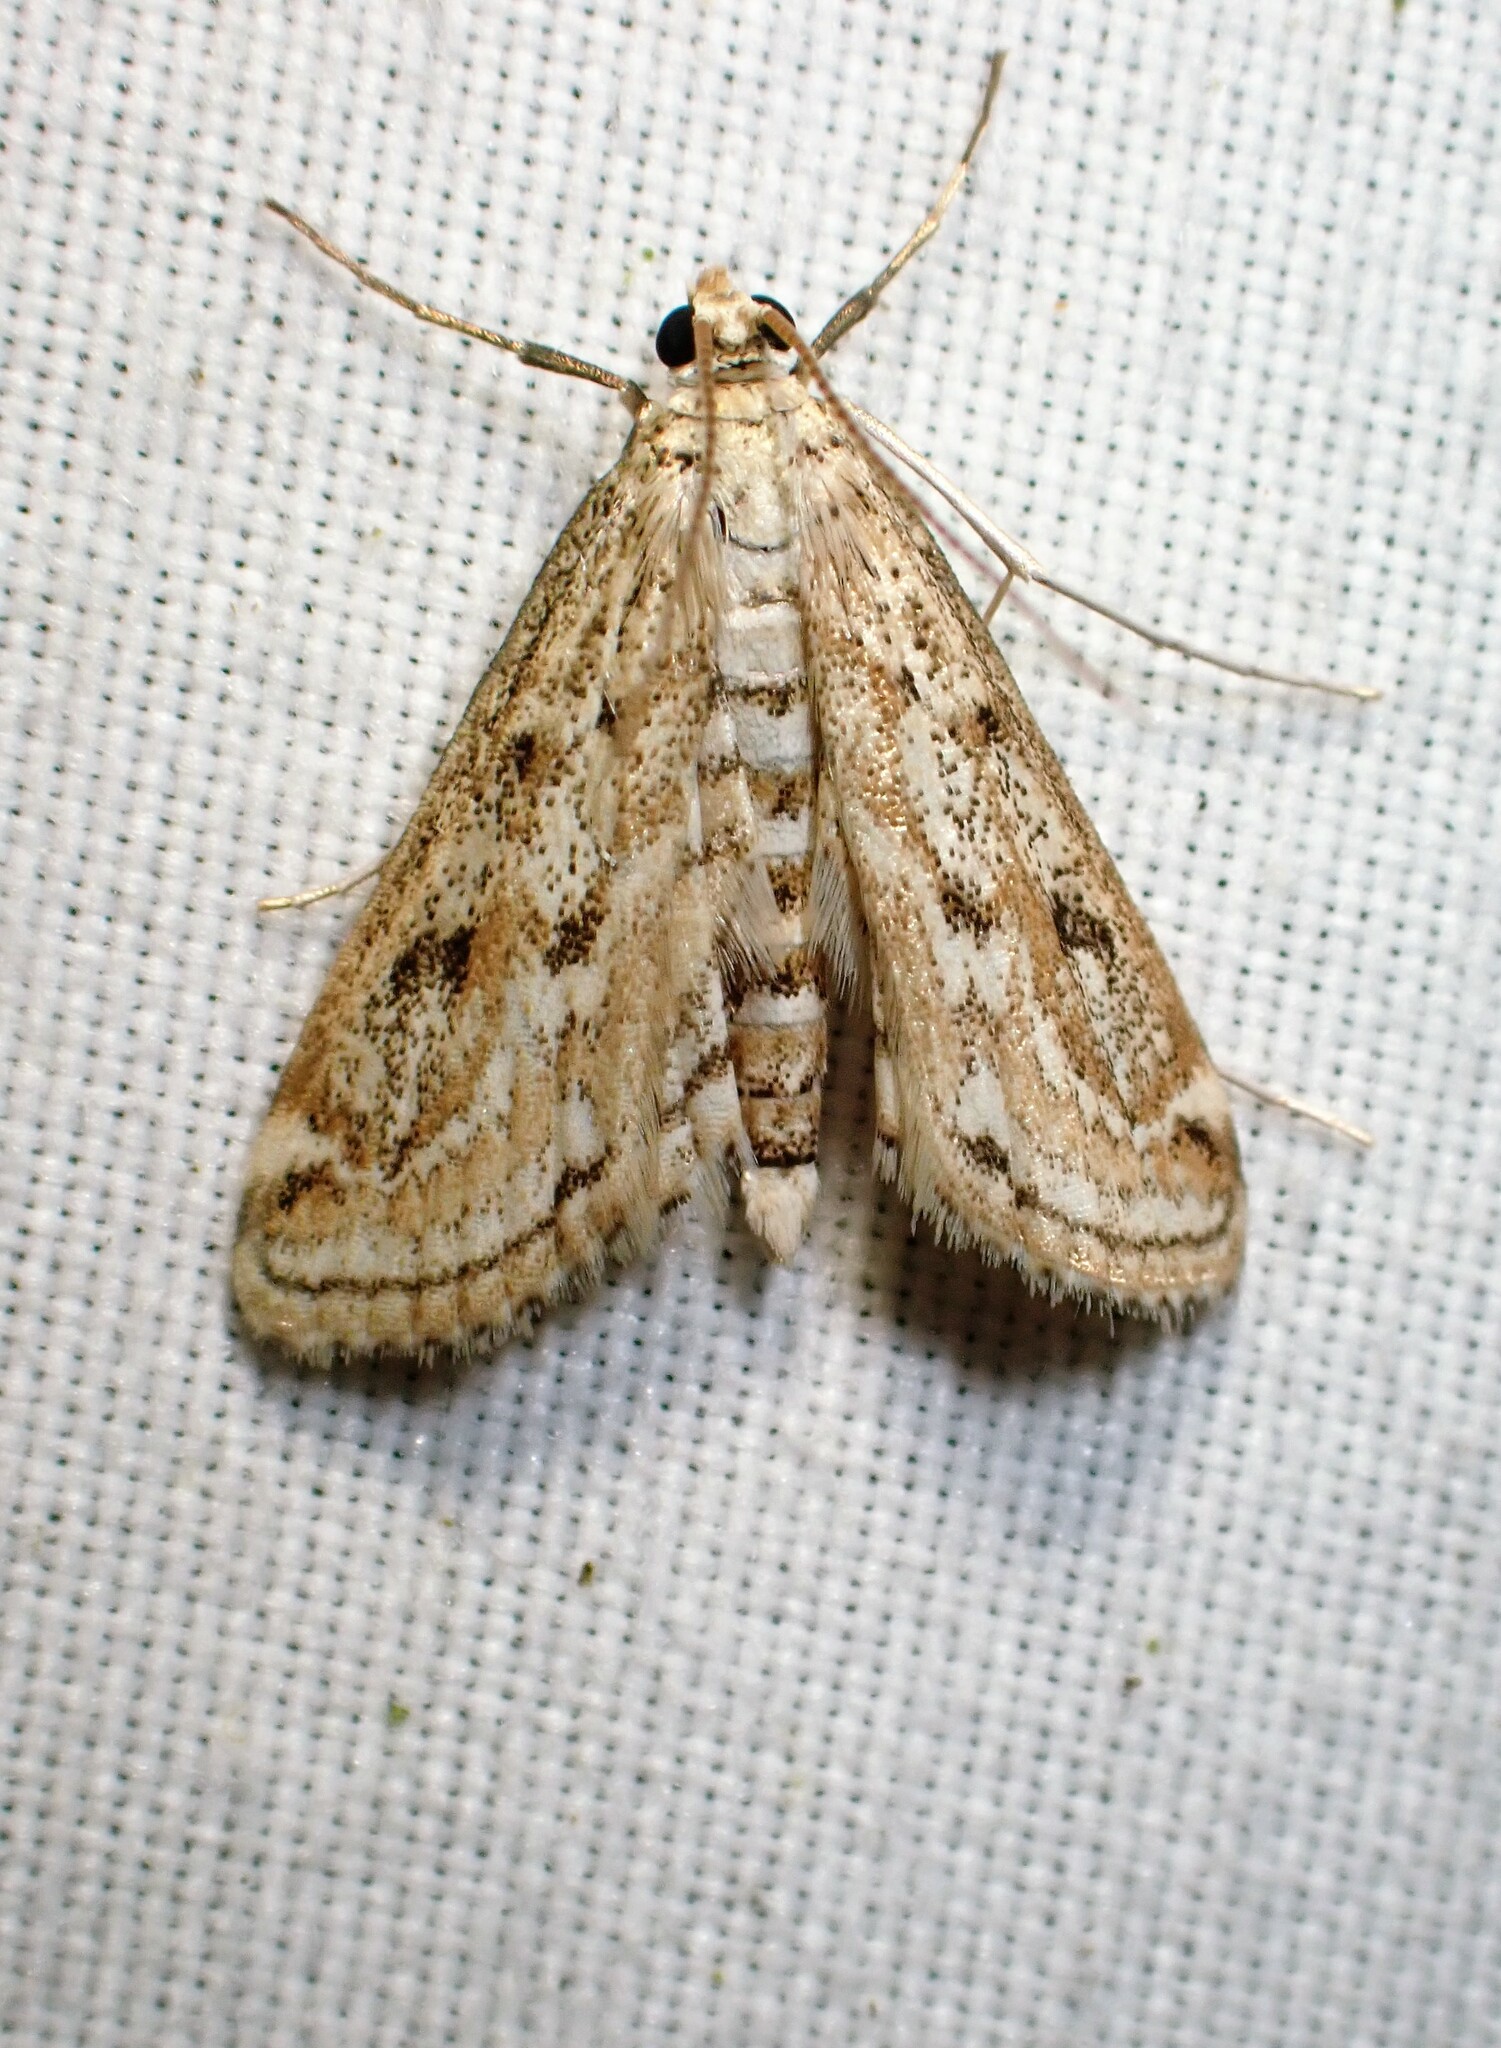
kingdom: Animalia
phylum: Arthropoda
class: Insecta
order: Lepidoptera
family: Crambidae
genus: Parapoynx
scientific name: Parapoynx allionealis
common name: Bladderwort casemaker
